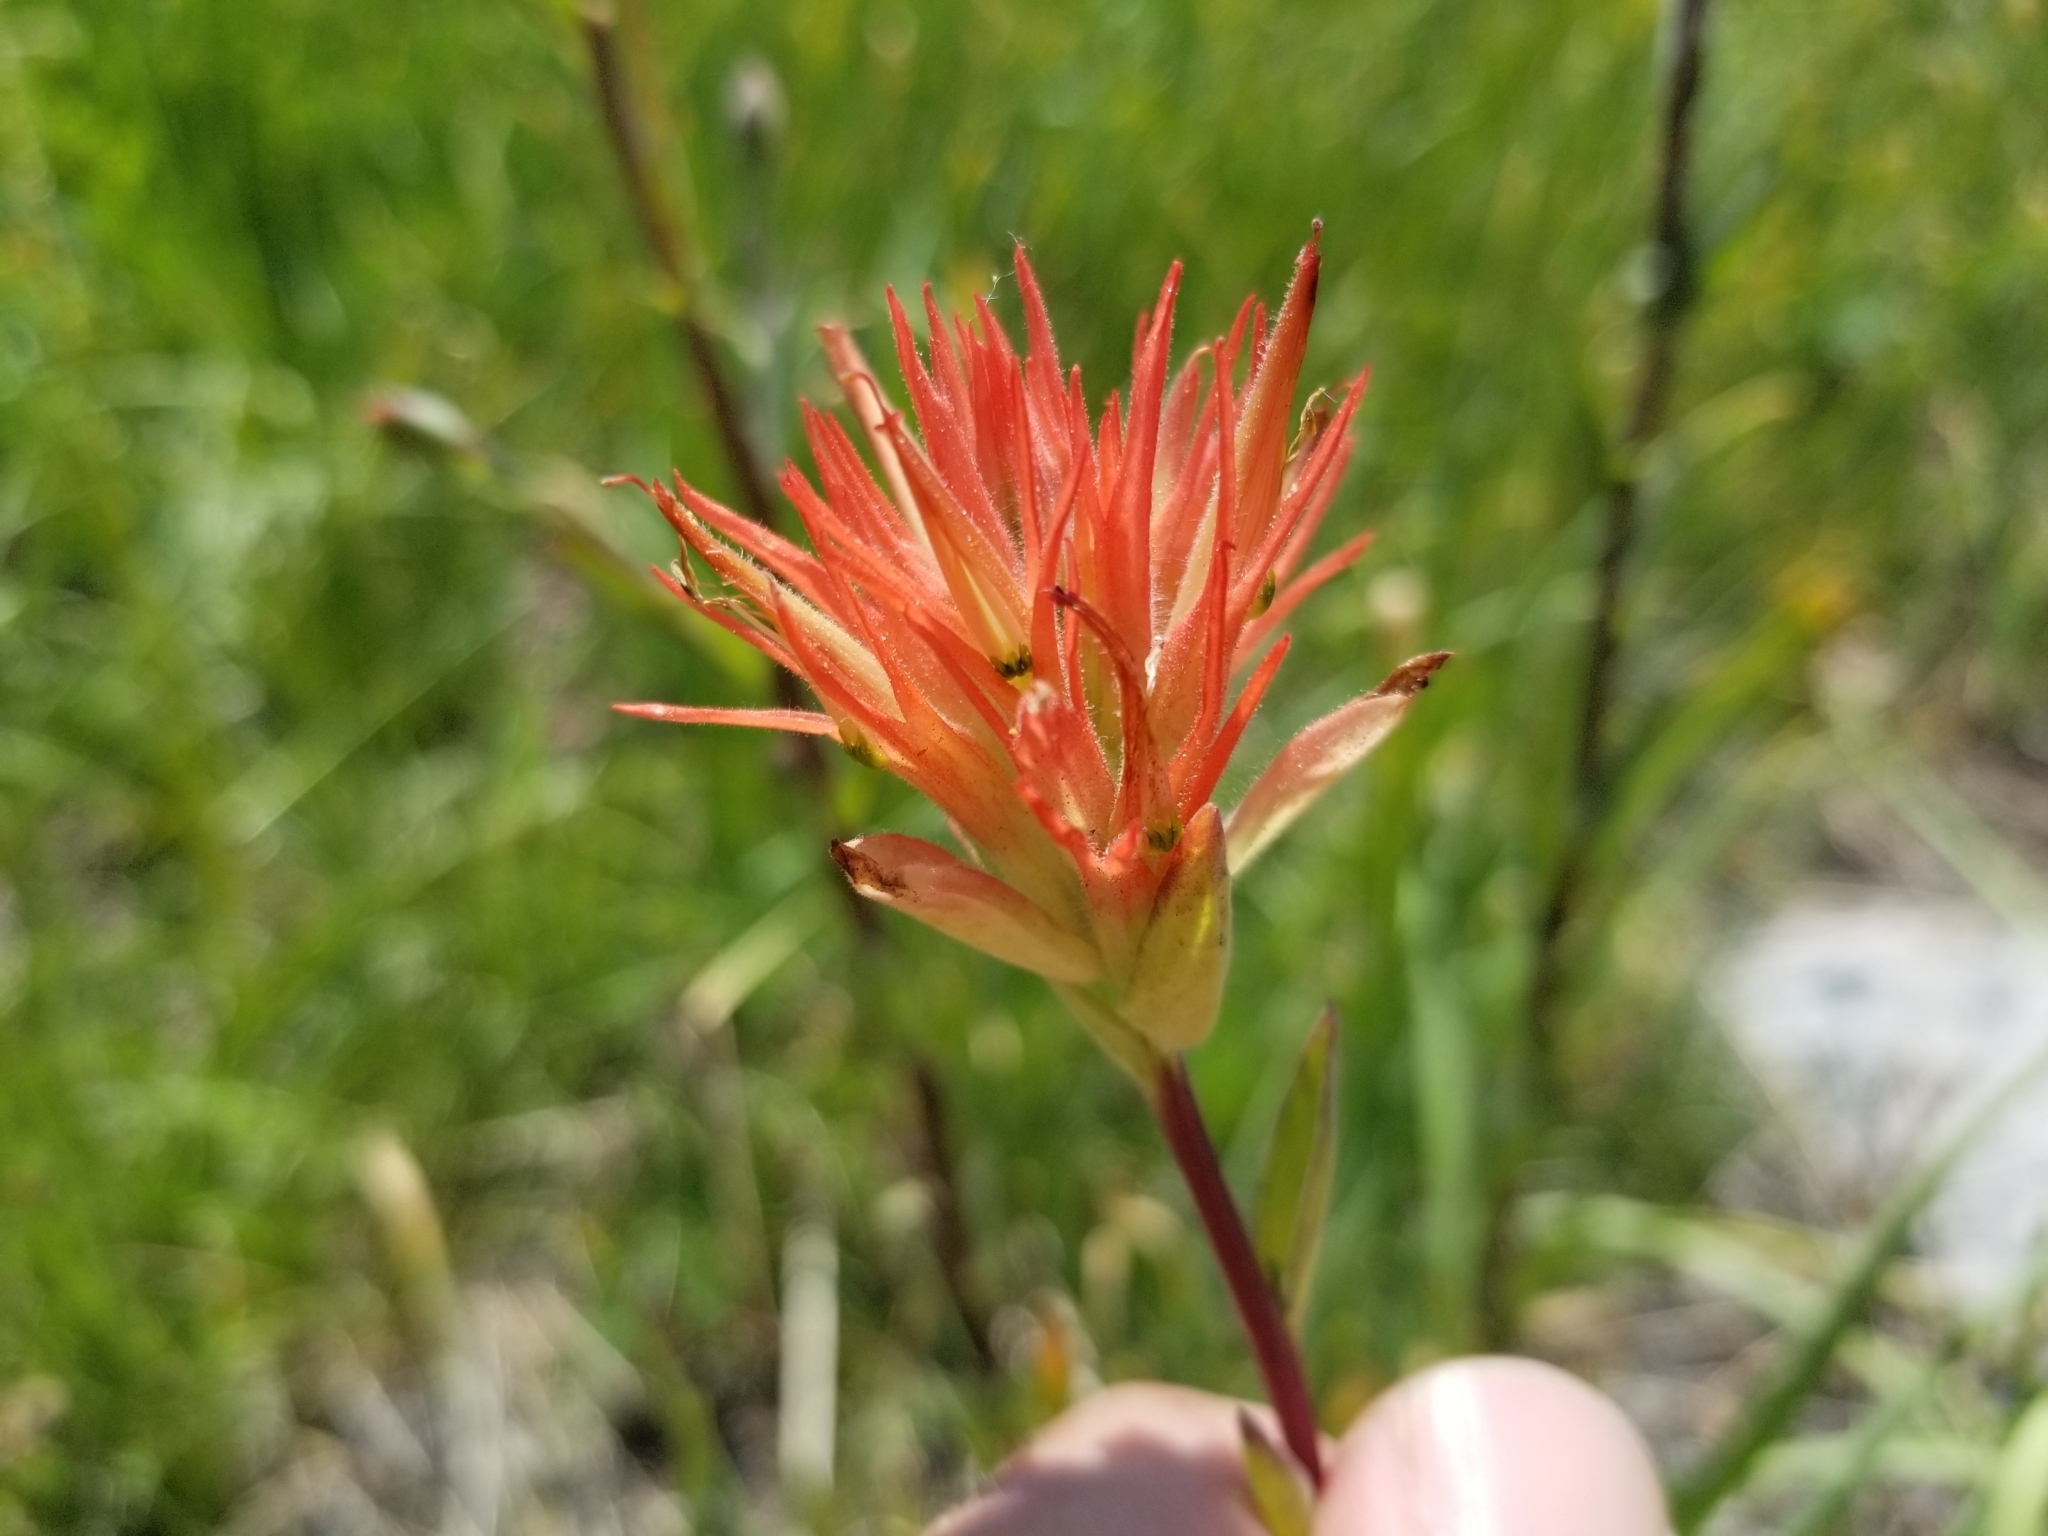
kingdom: Plantae
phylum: Tracheophyta
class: Magnoliopsida
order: Lamiales
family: Orobanchaceae
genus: Castilleja
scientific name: Castilleja miniata
